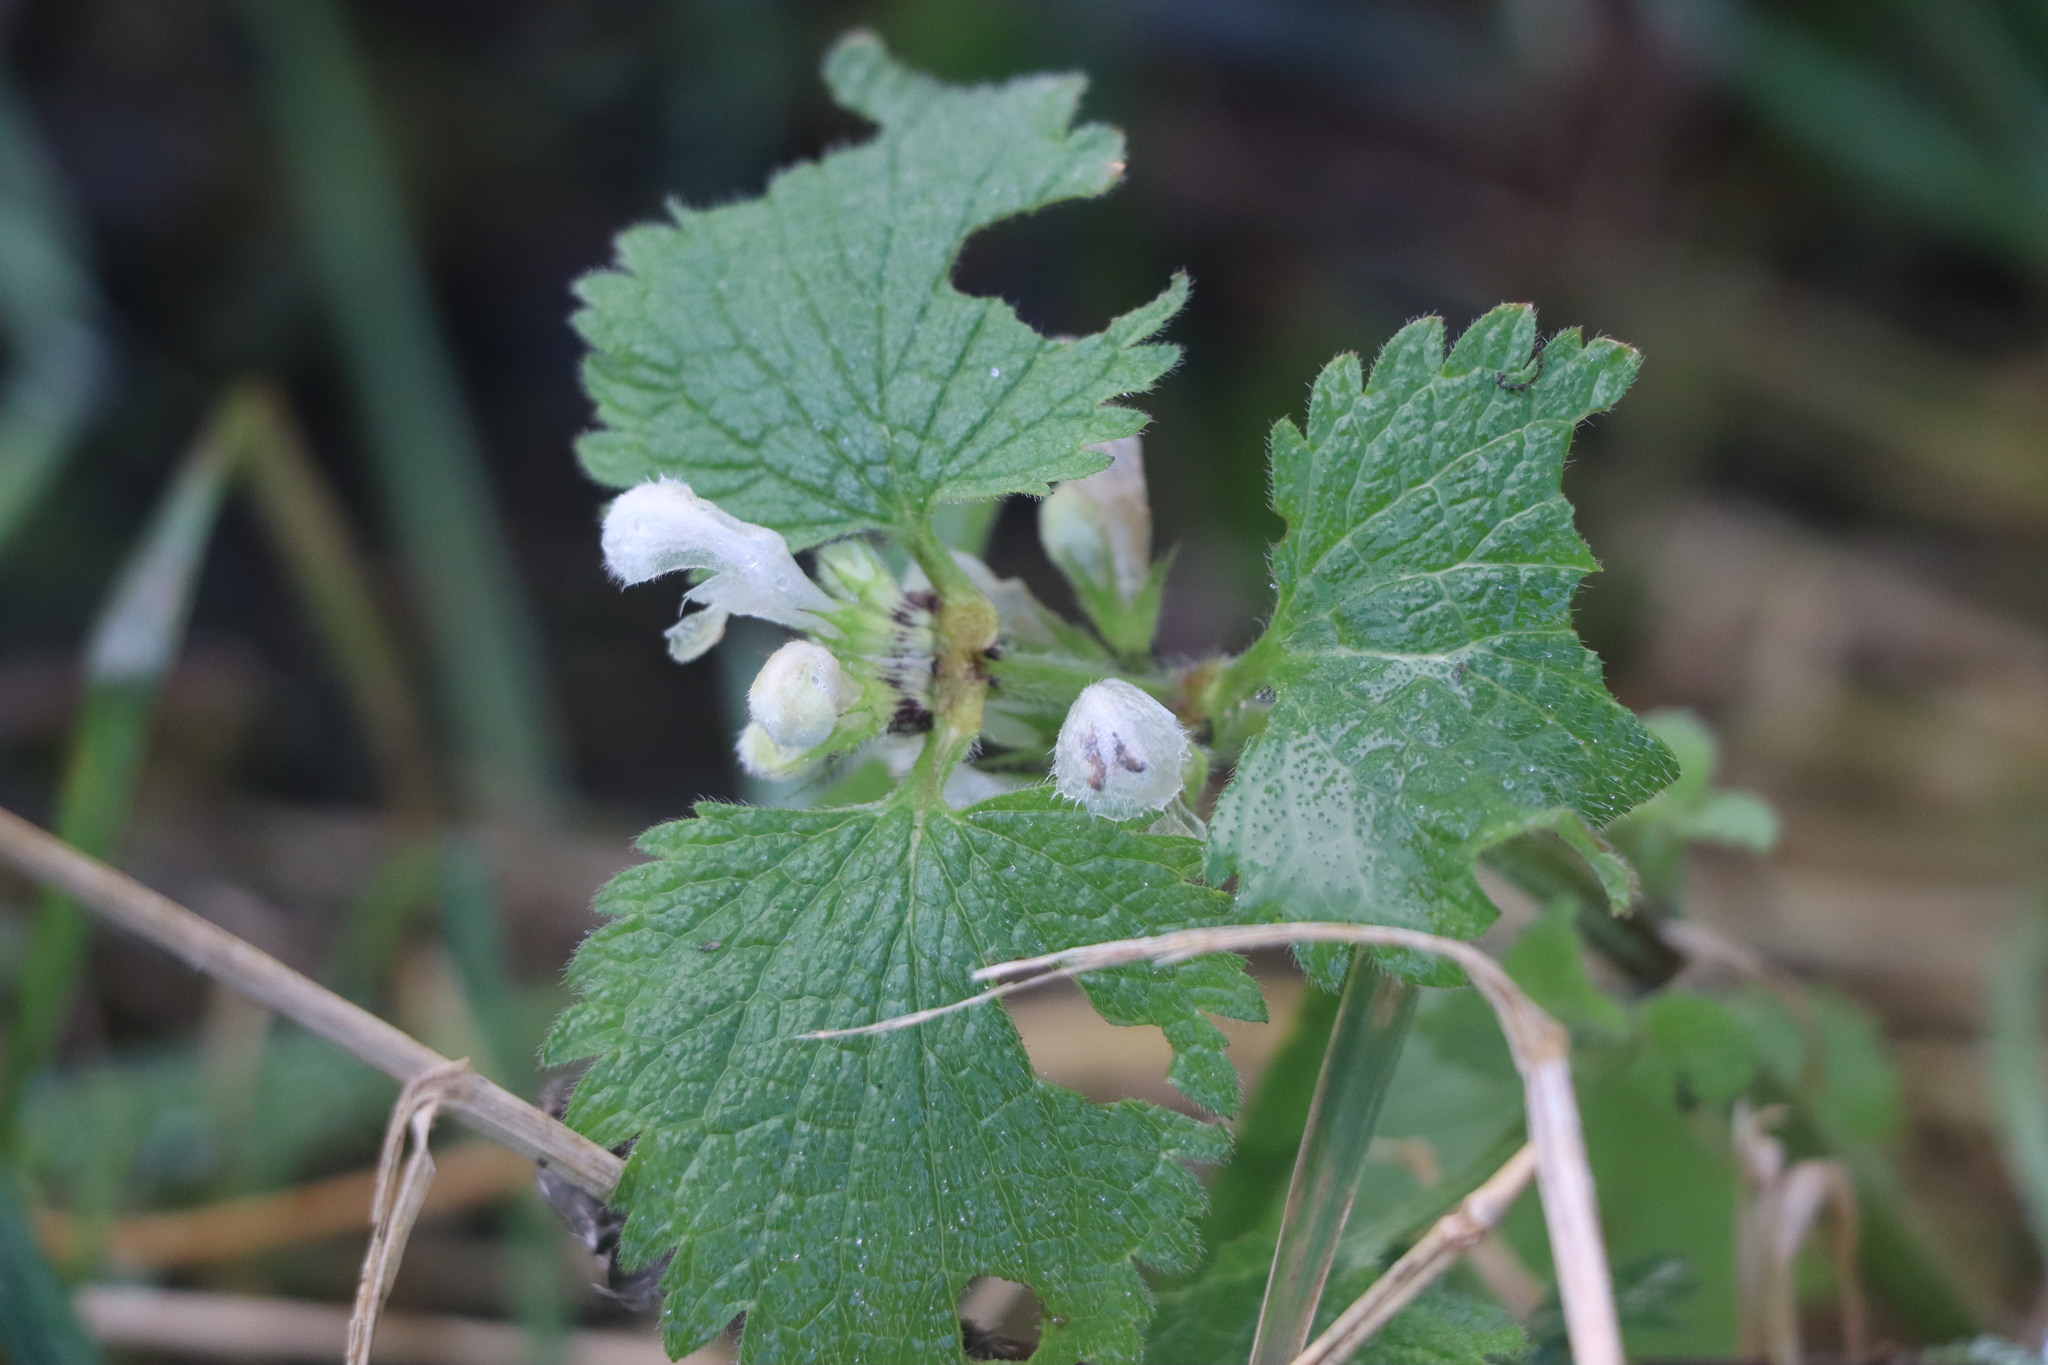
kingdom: Plantae
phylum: Tracheophyta
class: Magnoliopsida
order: Lamiales
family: Lamiaceae
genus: Lamium
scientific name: Lamium album
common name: White dead-nettle
